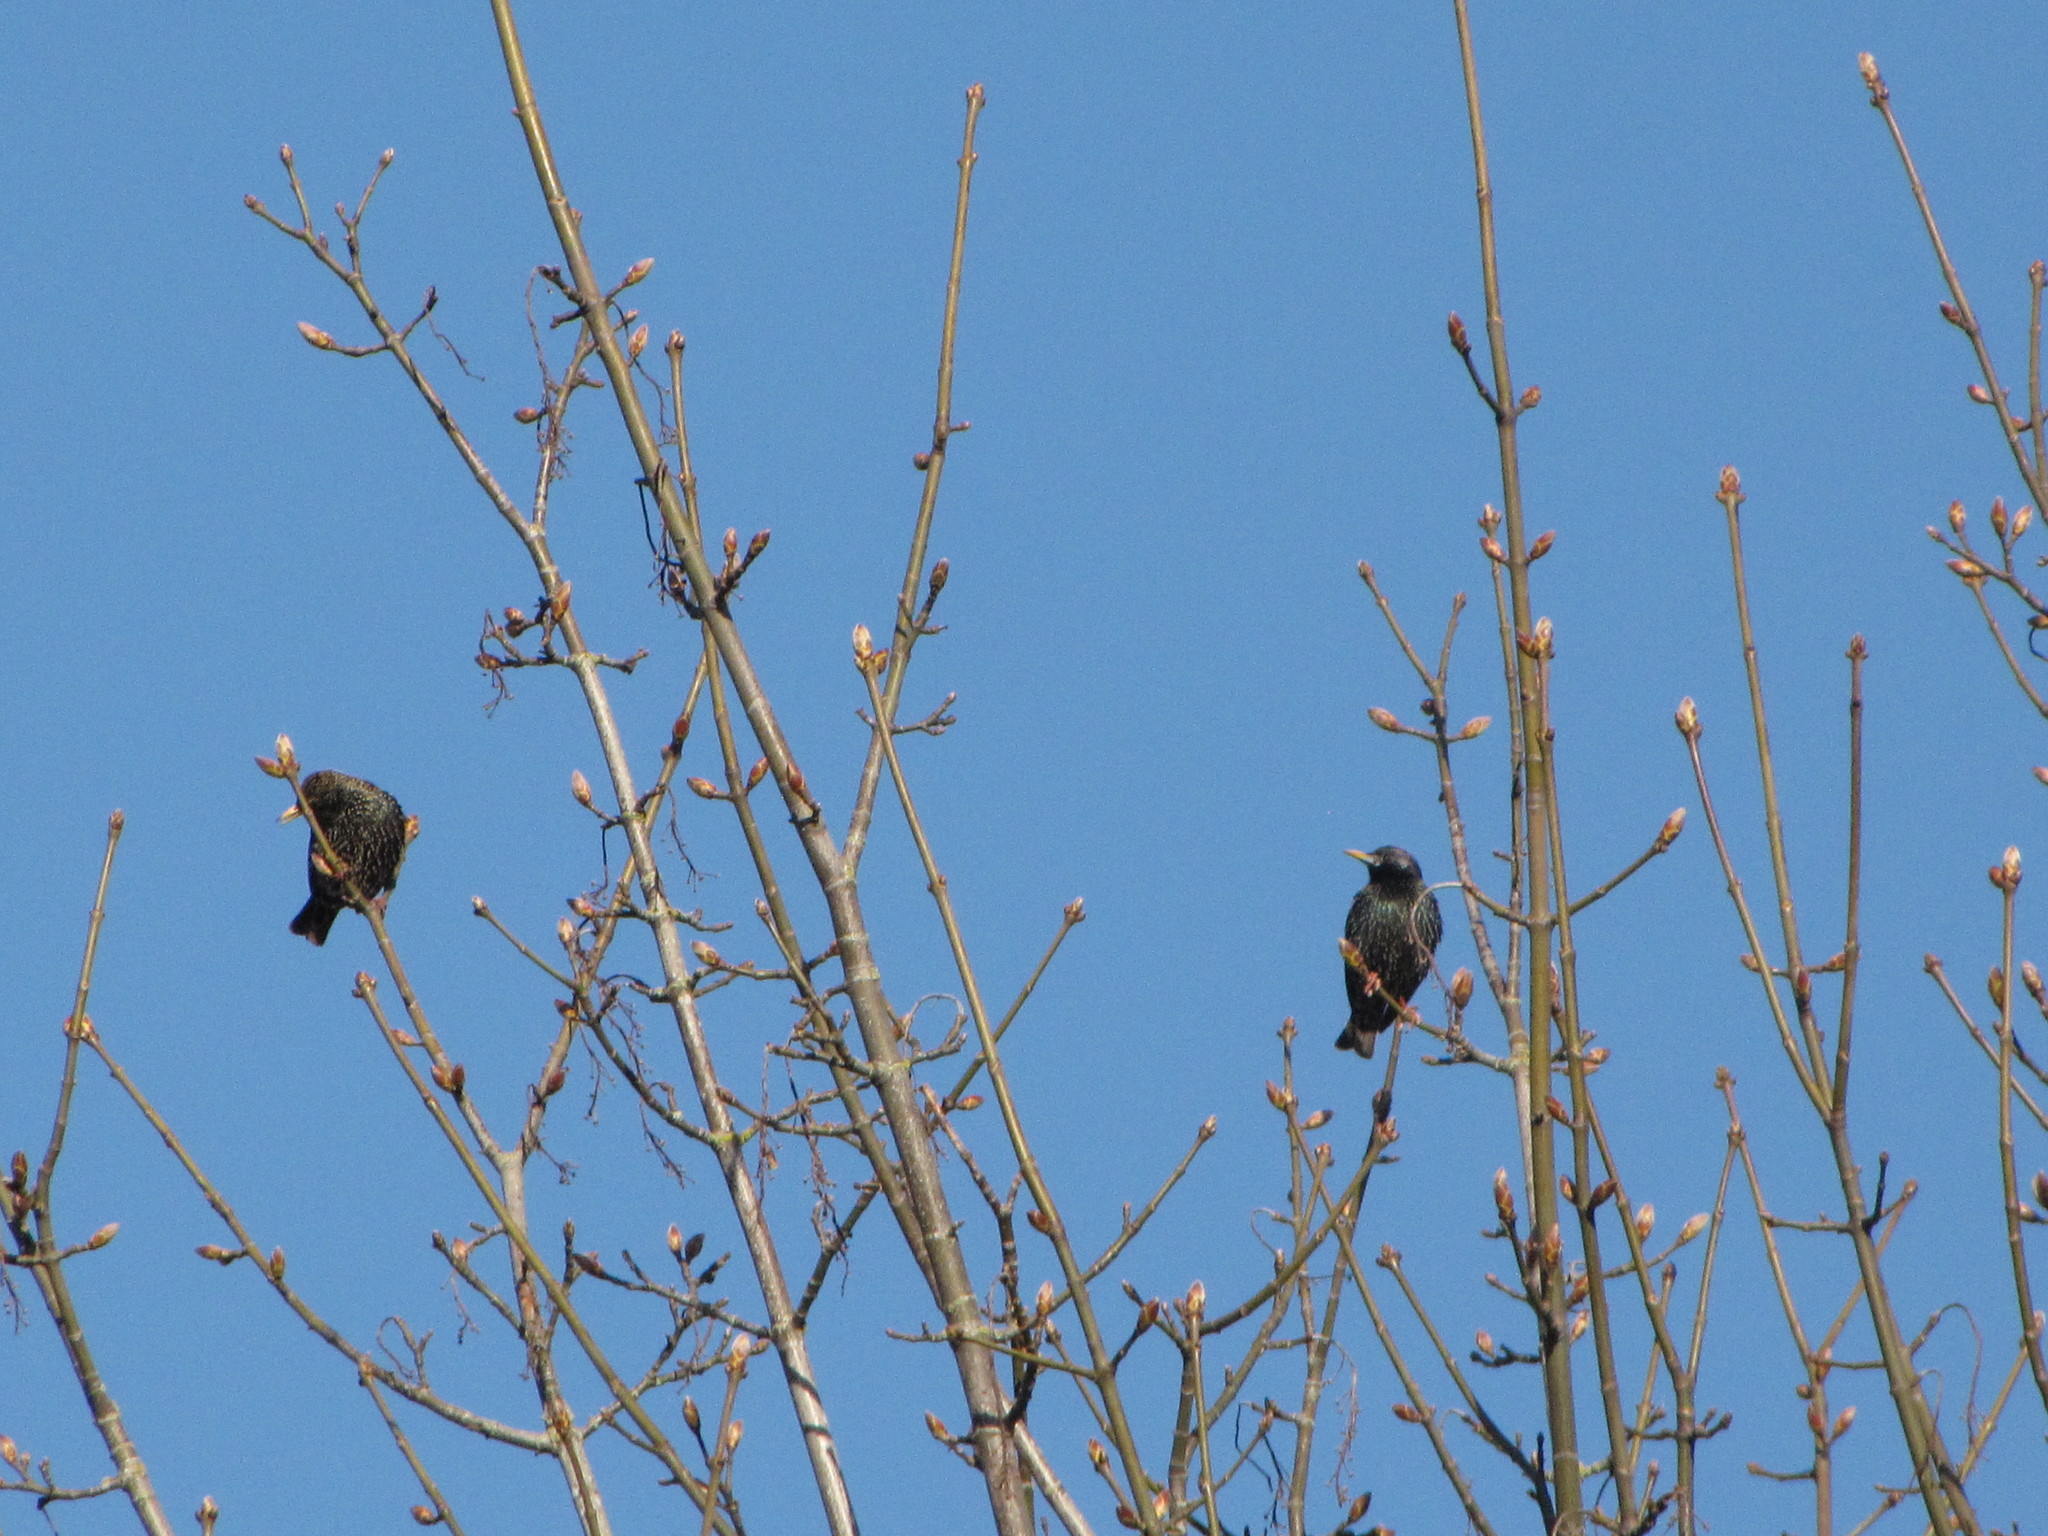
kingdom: Animalia
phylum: Chordata
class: Aves
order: Passeriformes
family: Sturnidae
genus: Sturnus
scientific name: Sturnus vulgaris
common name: Common starling
